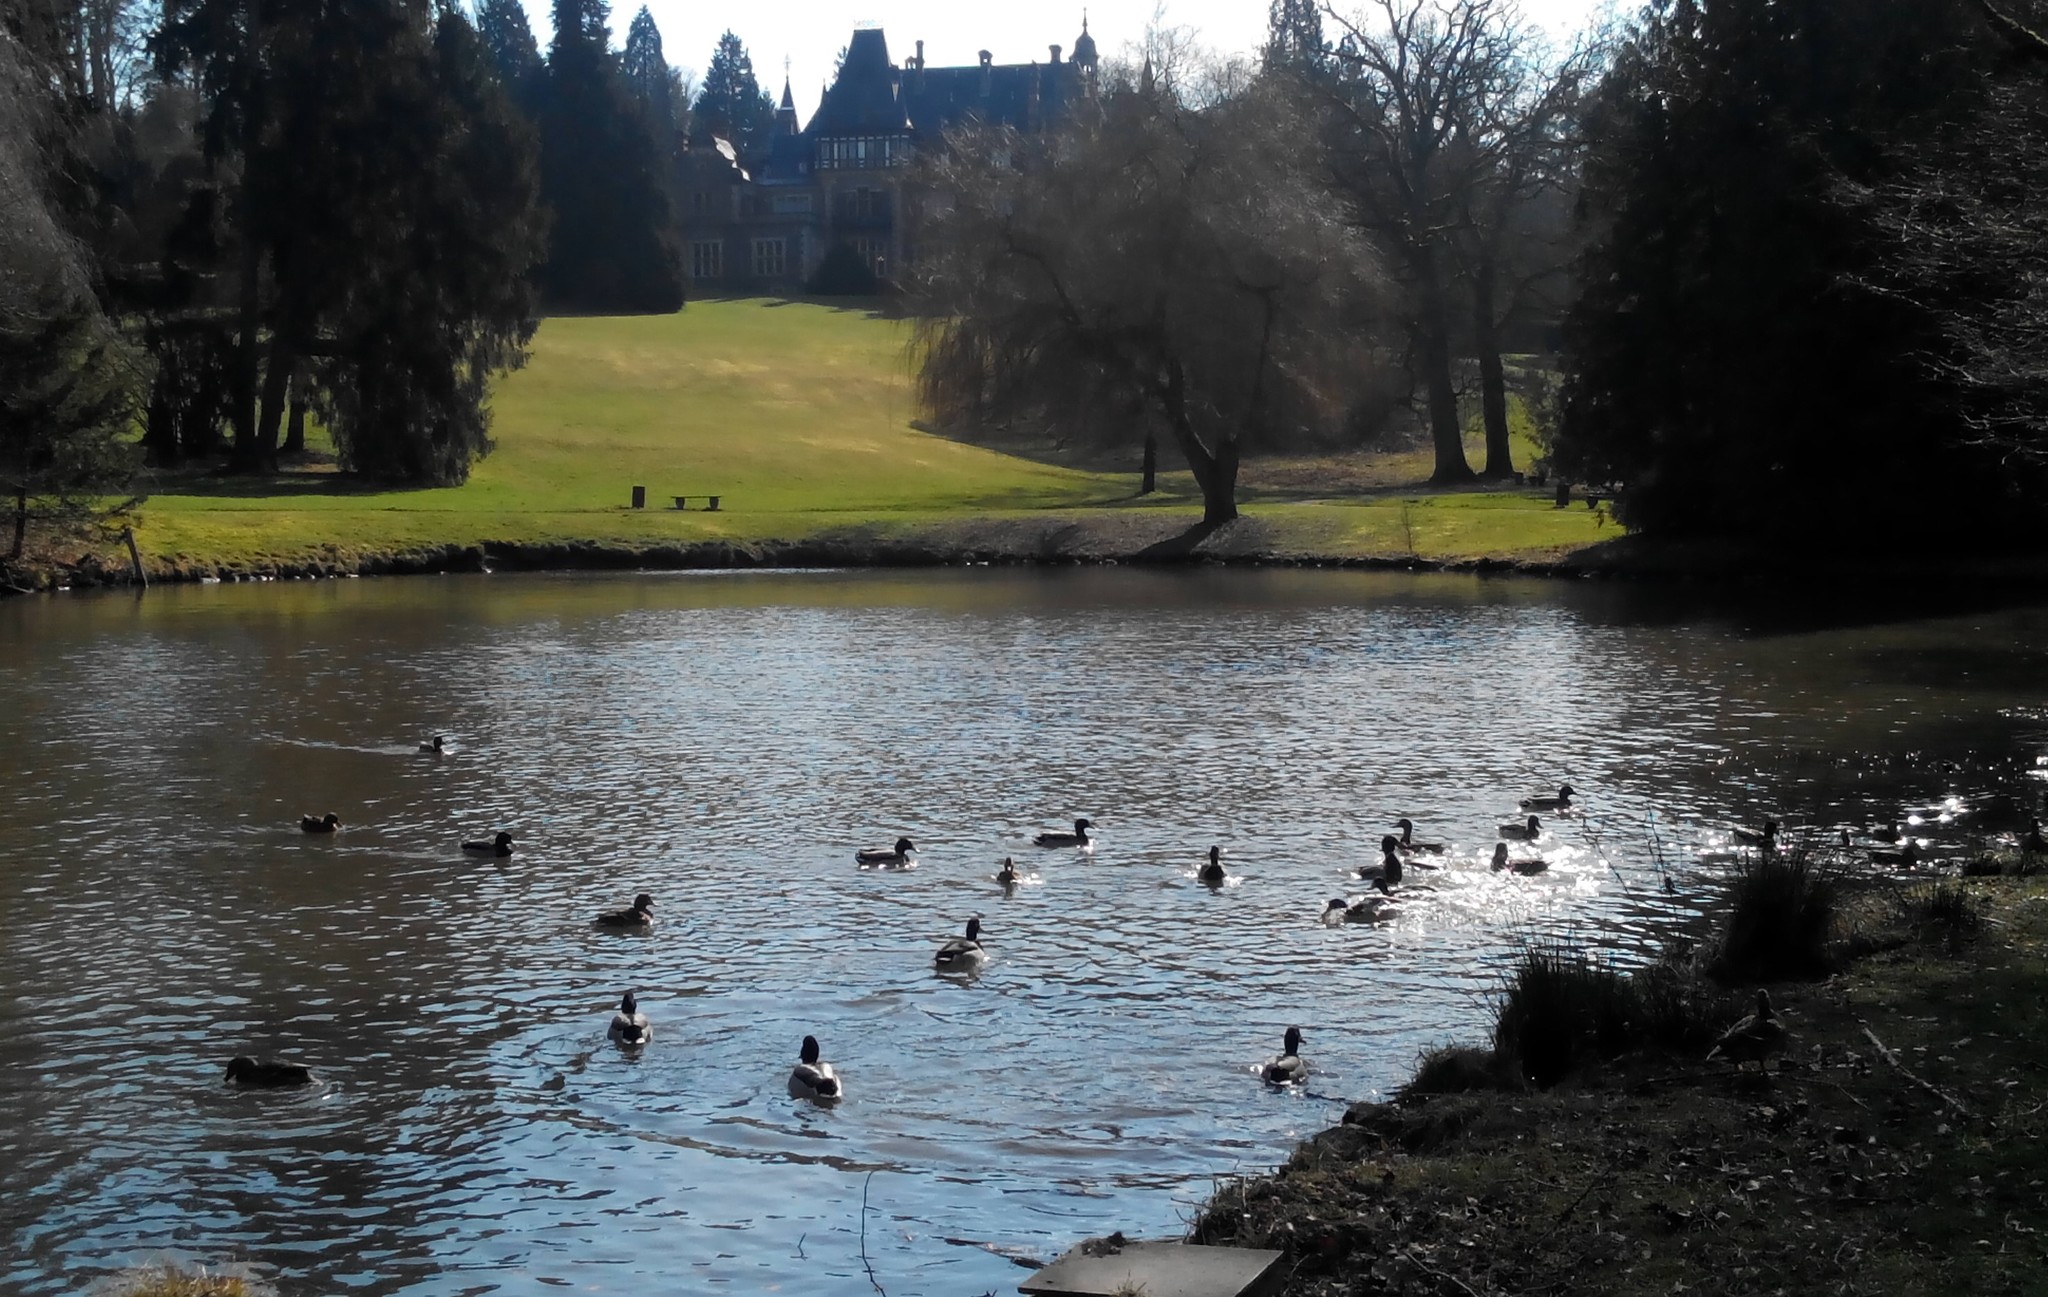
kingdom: Animalia
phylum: Chordata
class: Aves
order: Anseriformes
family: Anatidae
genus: Anas
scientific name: Anas platyrhynchos
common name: Mallard
